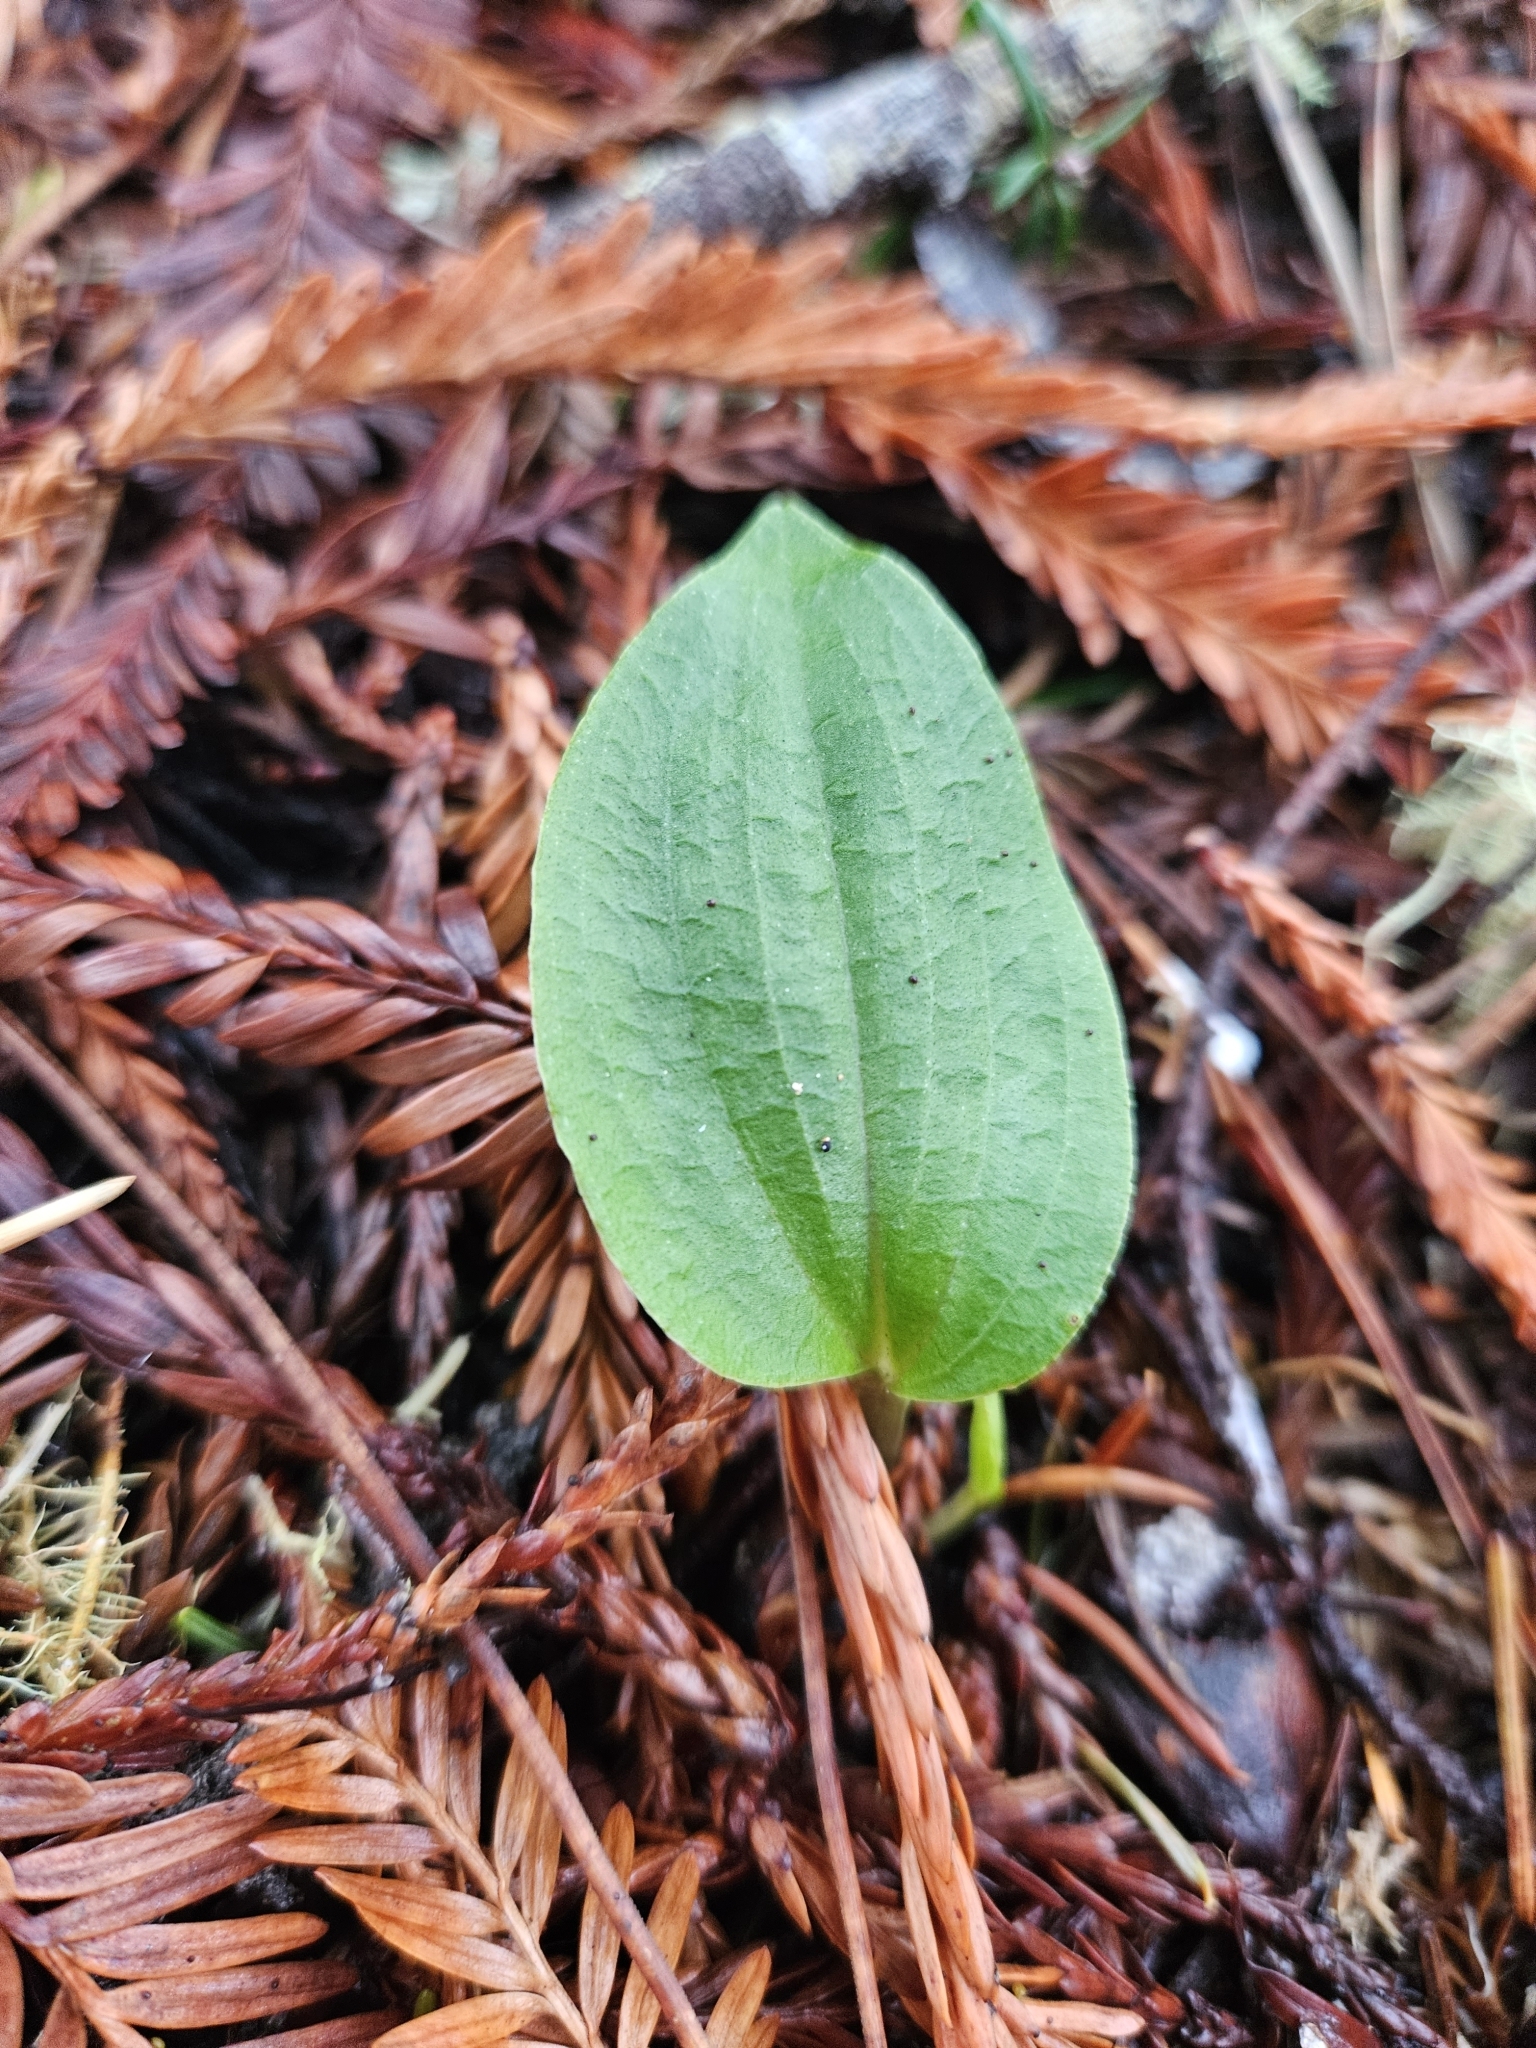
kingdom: Plantae
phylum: Tracheophyta
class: Liliopsida
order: Asparagales
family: Orchidaceae
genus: Calypso
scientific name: Calypso bulbosa
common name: Calypso
